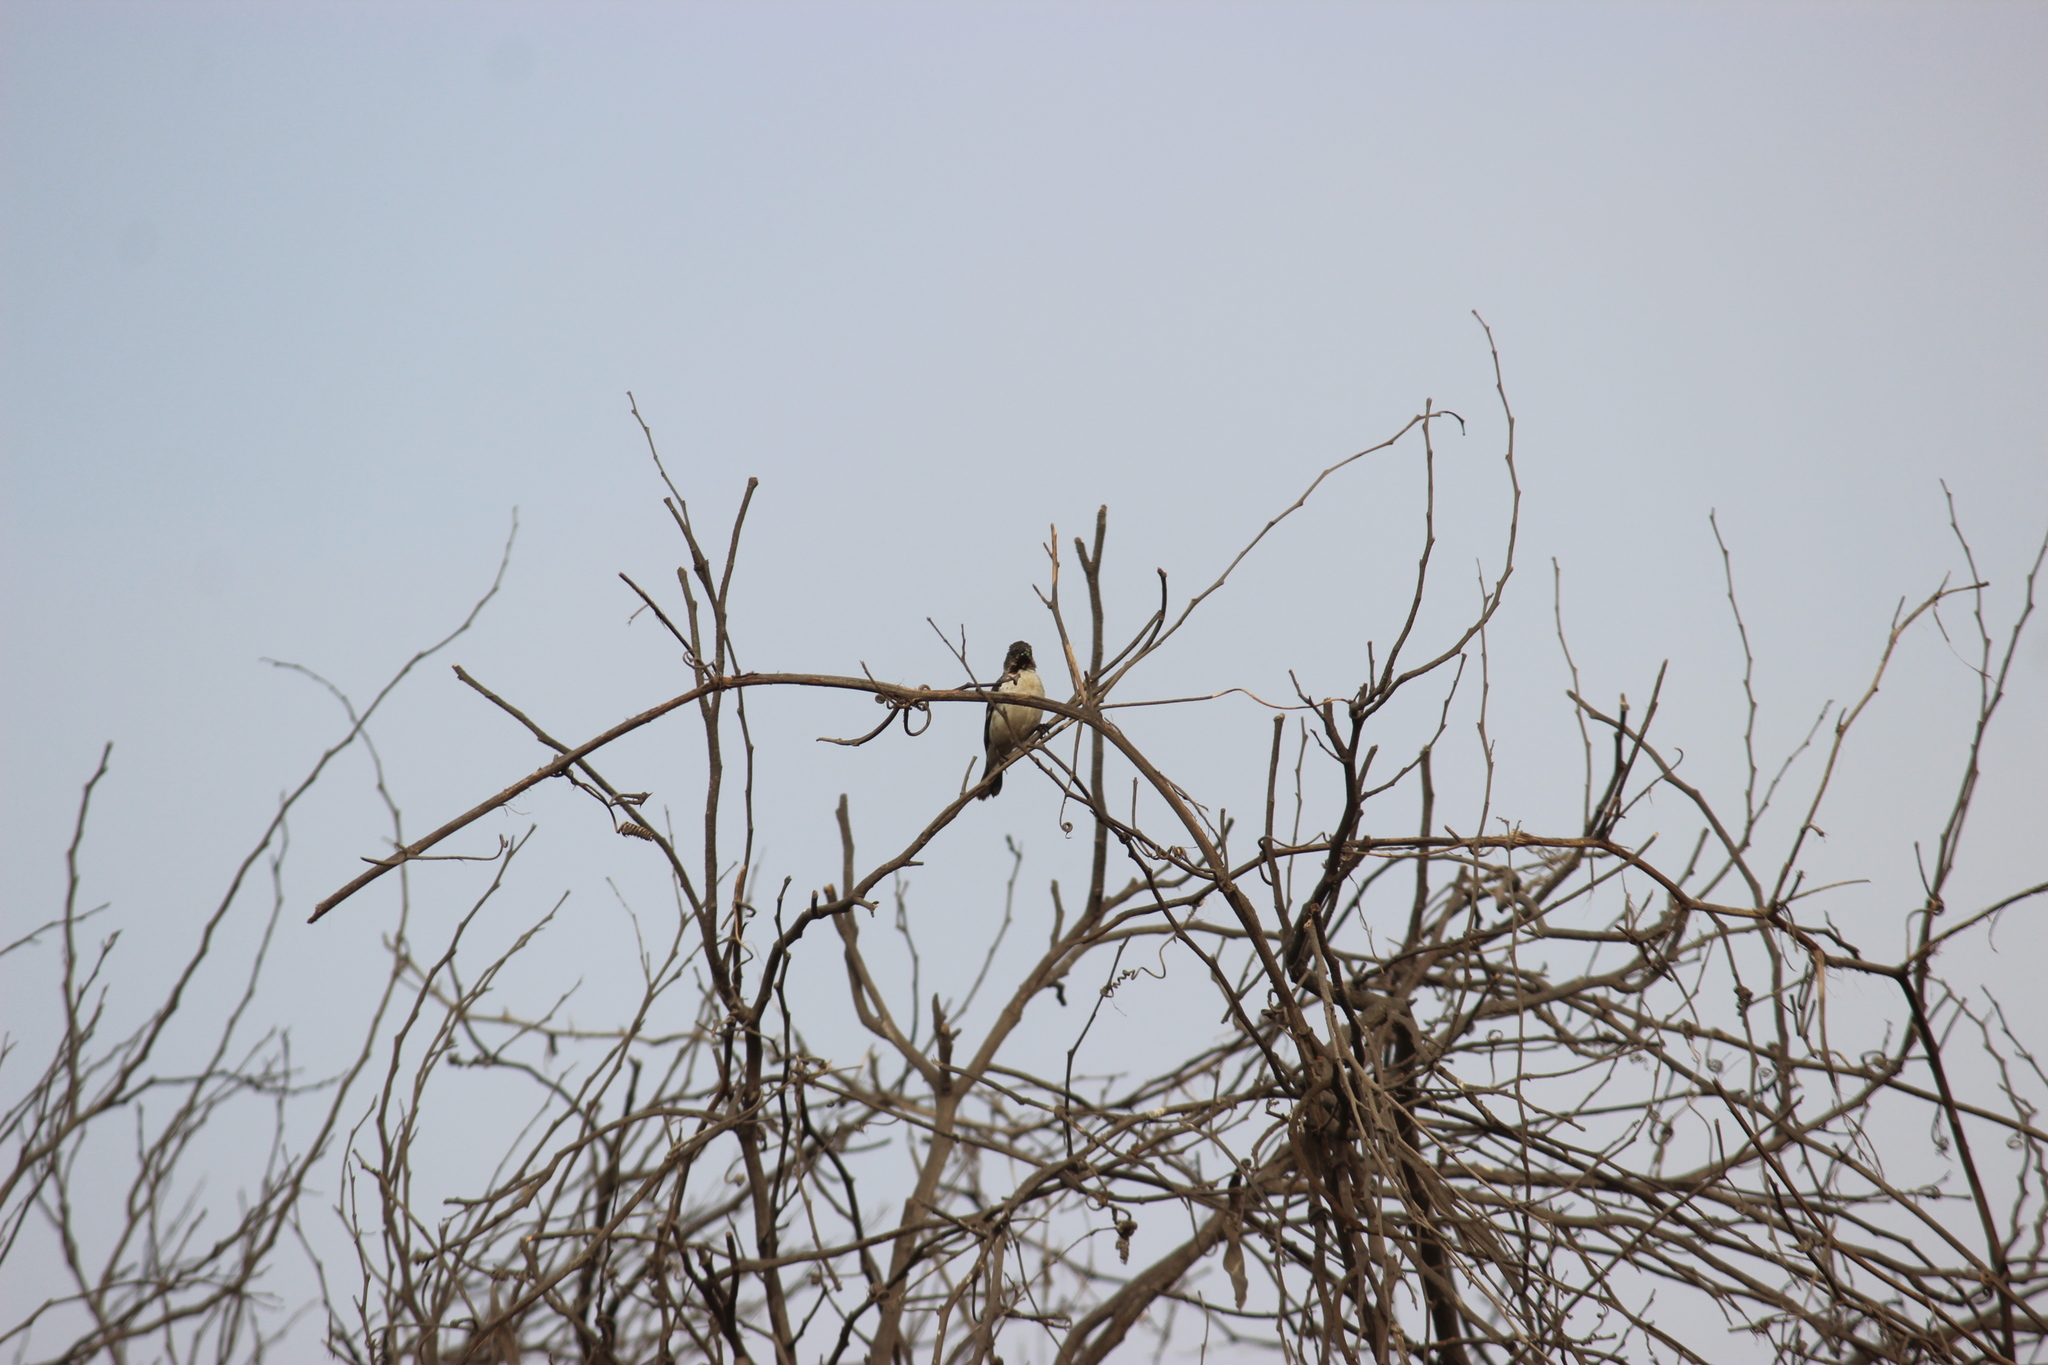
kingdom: Animalia
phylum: Chordata
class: Aves
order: Passeriformes
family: Thraupidae
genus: Sporophila
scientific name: Sporophila telasco
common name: Chestnut-throated seedeater
